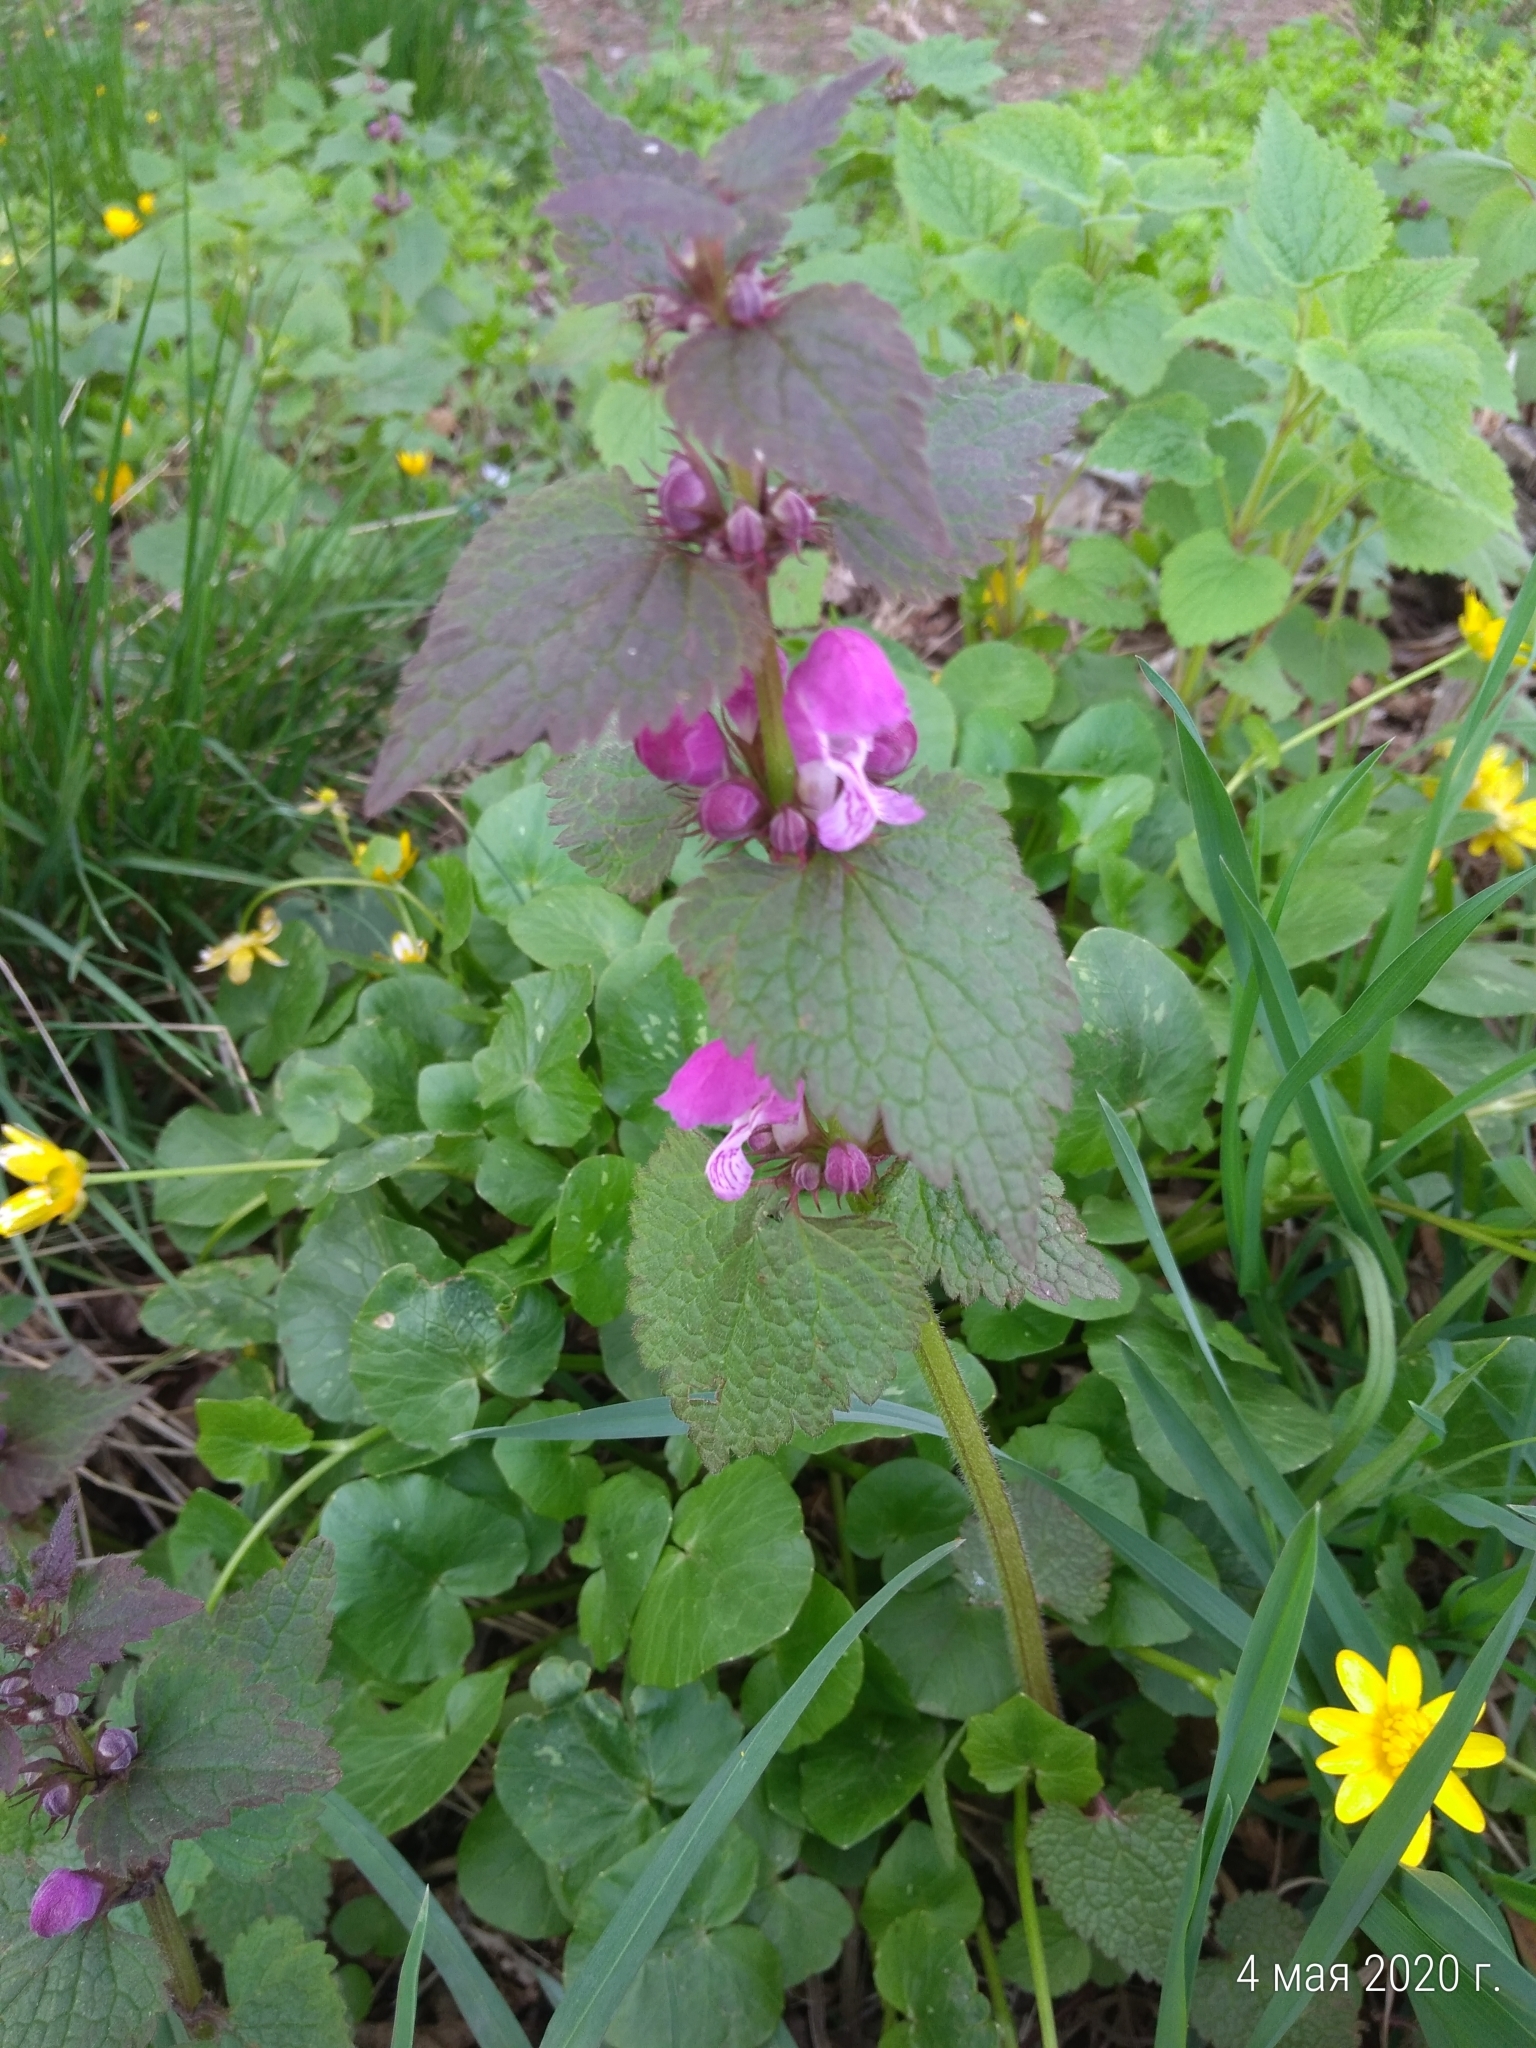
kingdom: Plantae
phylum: Tracheophyta
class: Magnoliopsida
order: Lamiales
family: Lamiaceae
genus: Lamium
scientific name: Lamium maculatum
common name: Spotted dead-nettle
